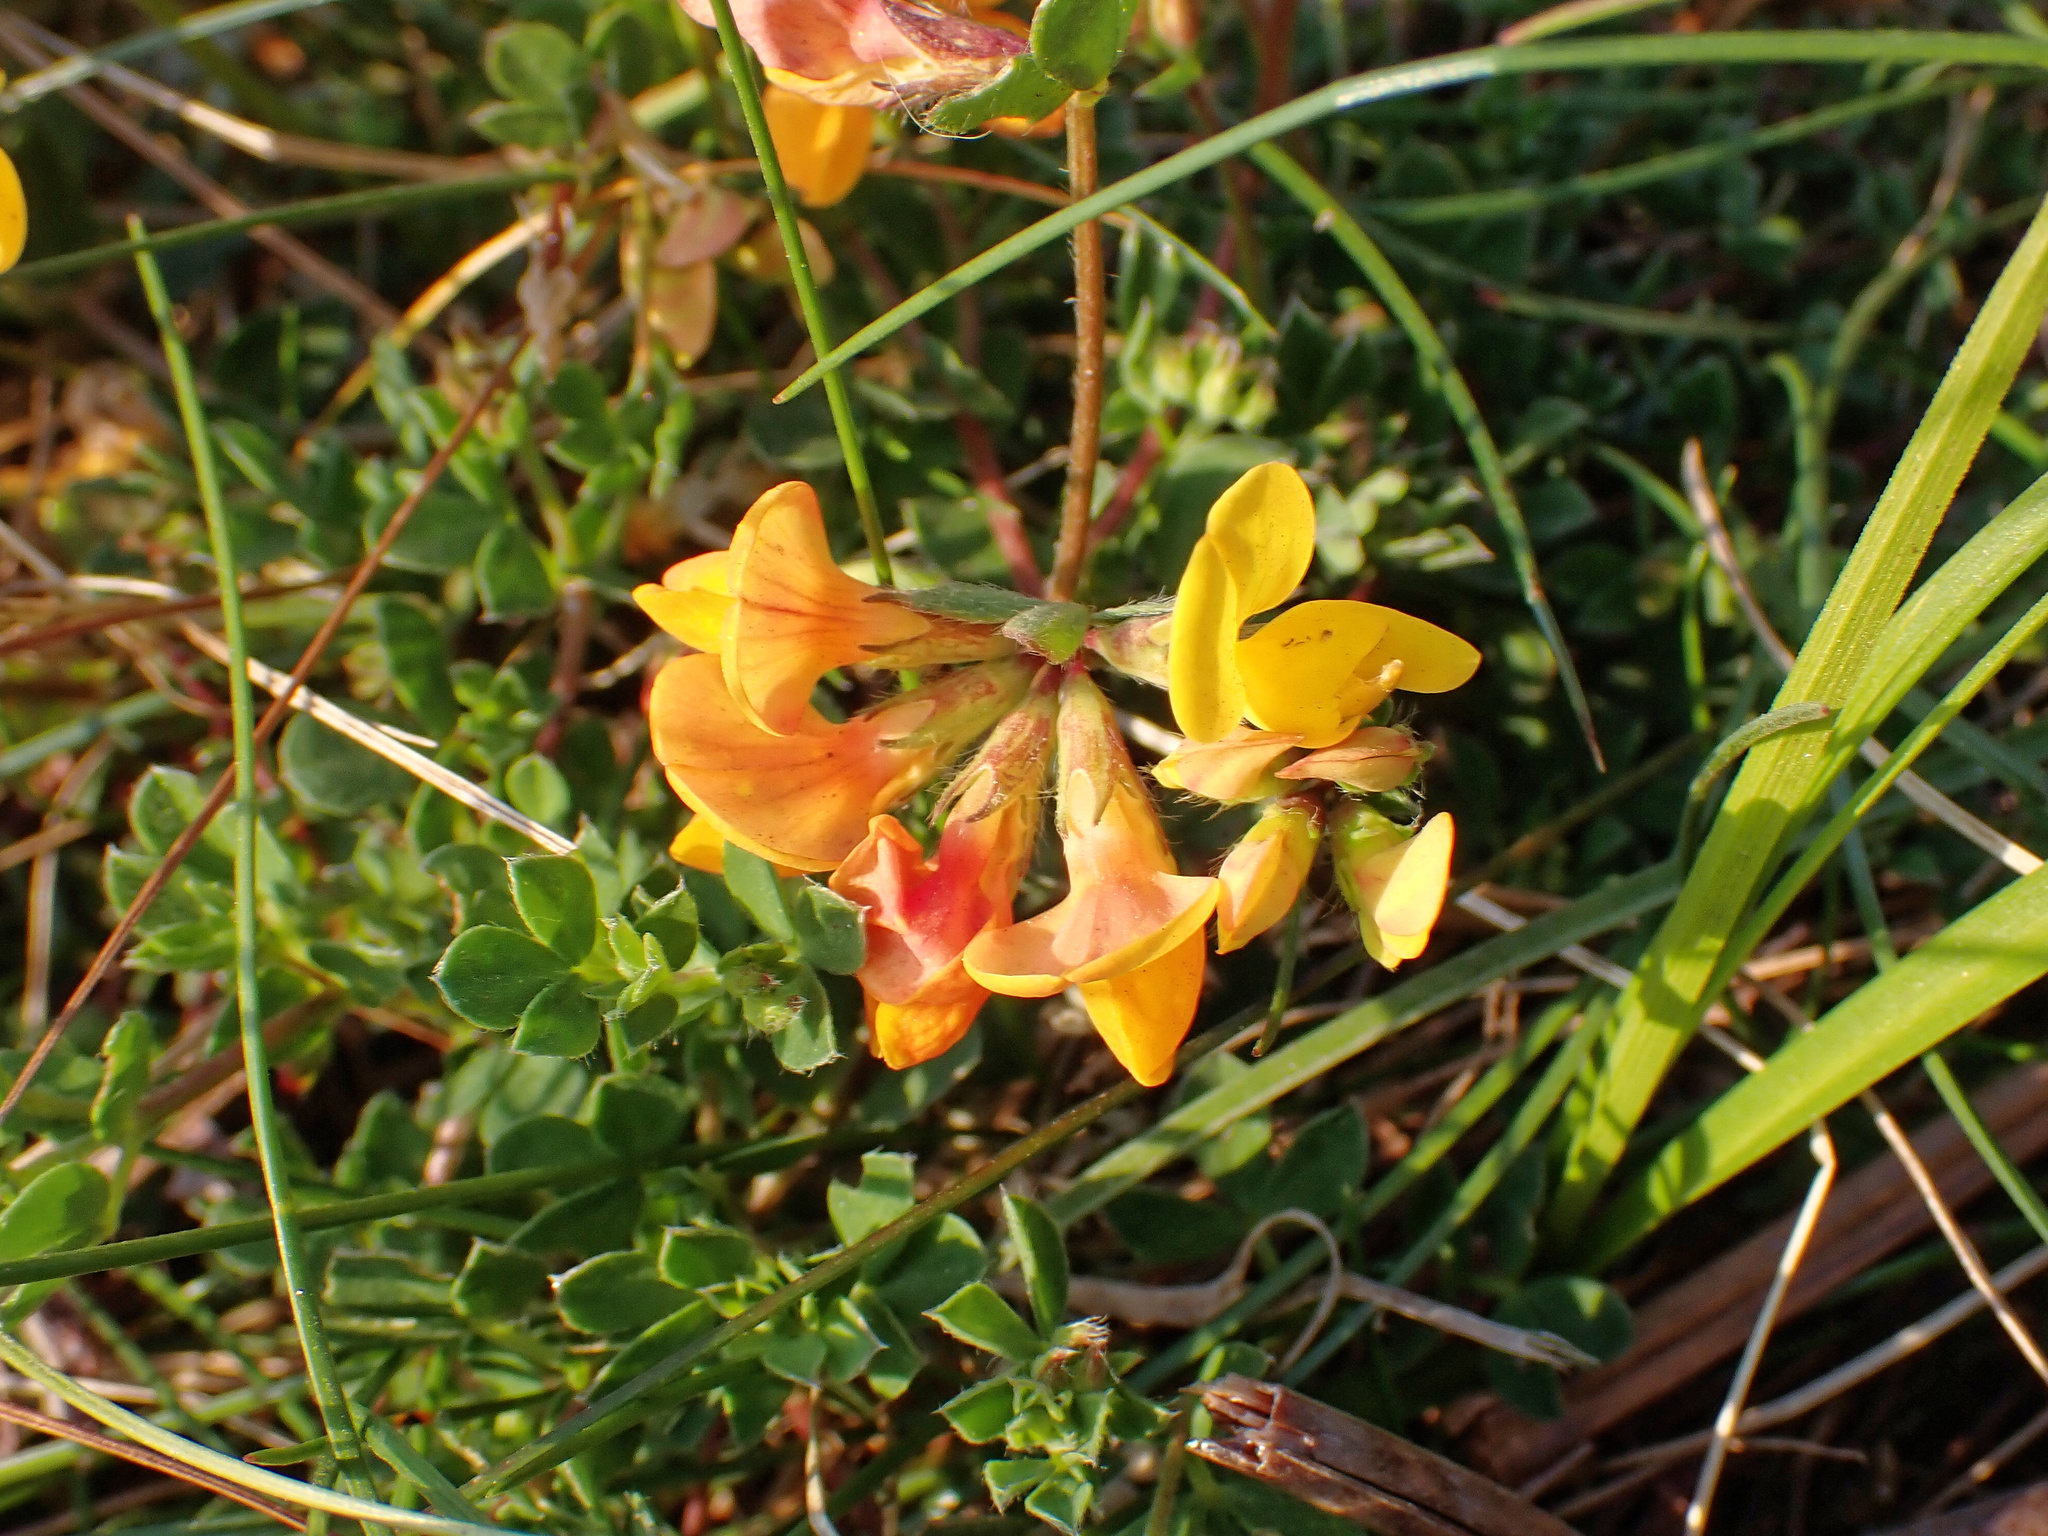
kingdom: Plantae
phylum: Tracheophyta
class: Magnoliopsida
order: Fabales
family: Fabaceae
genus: Lotus
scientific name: Lotus corniculatus
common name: Common bird's-foot-trefoil
